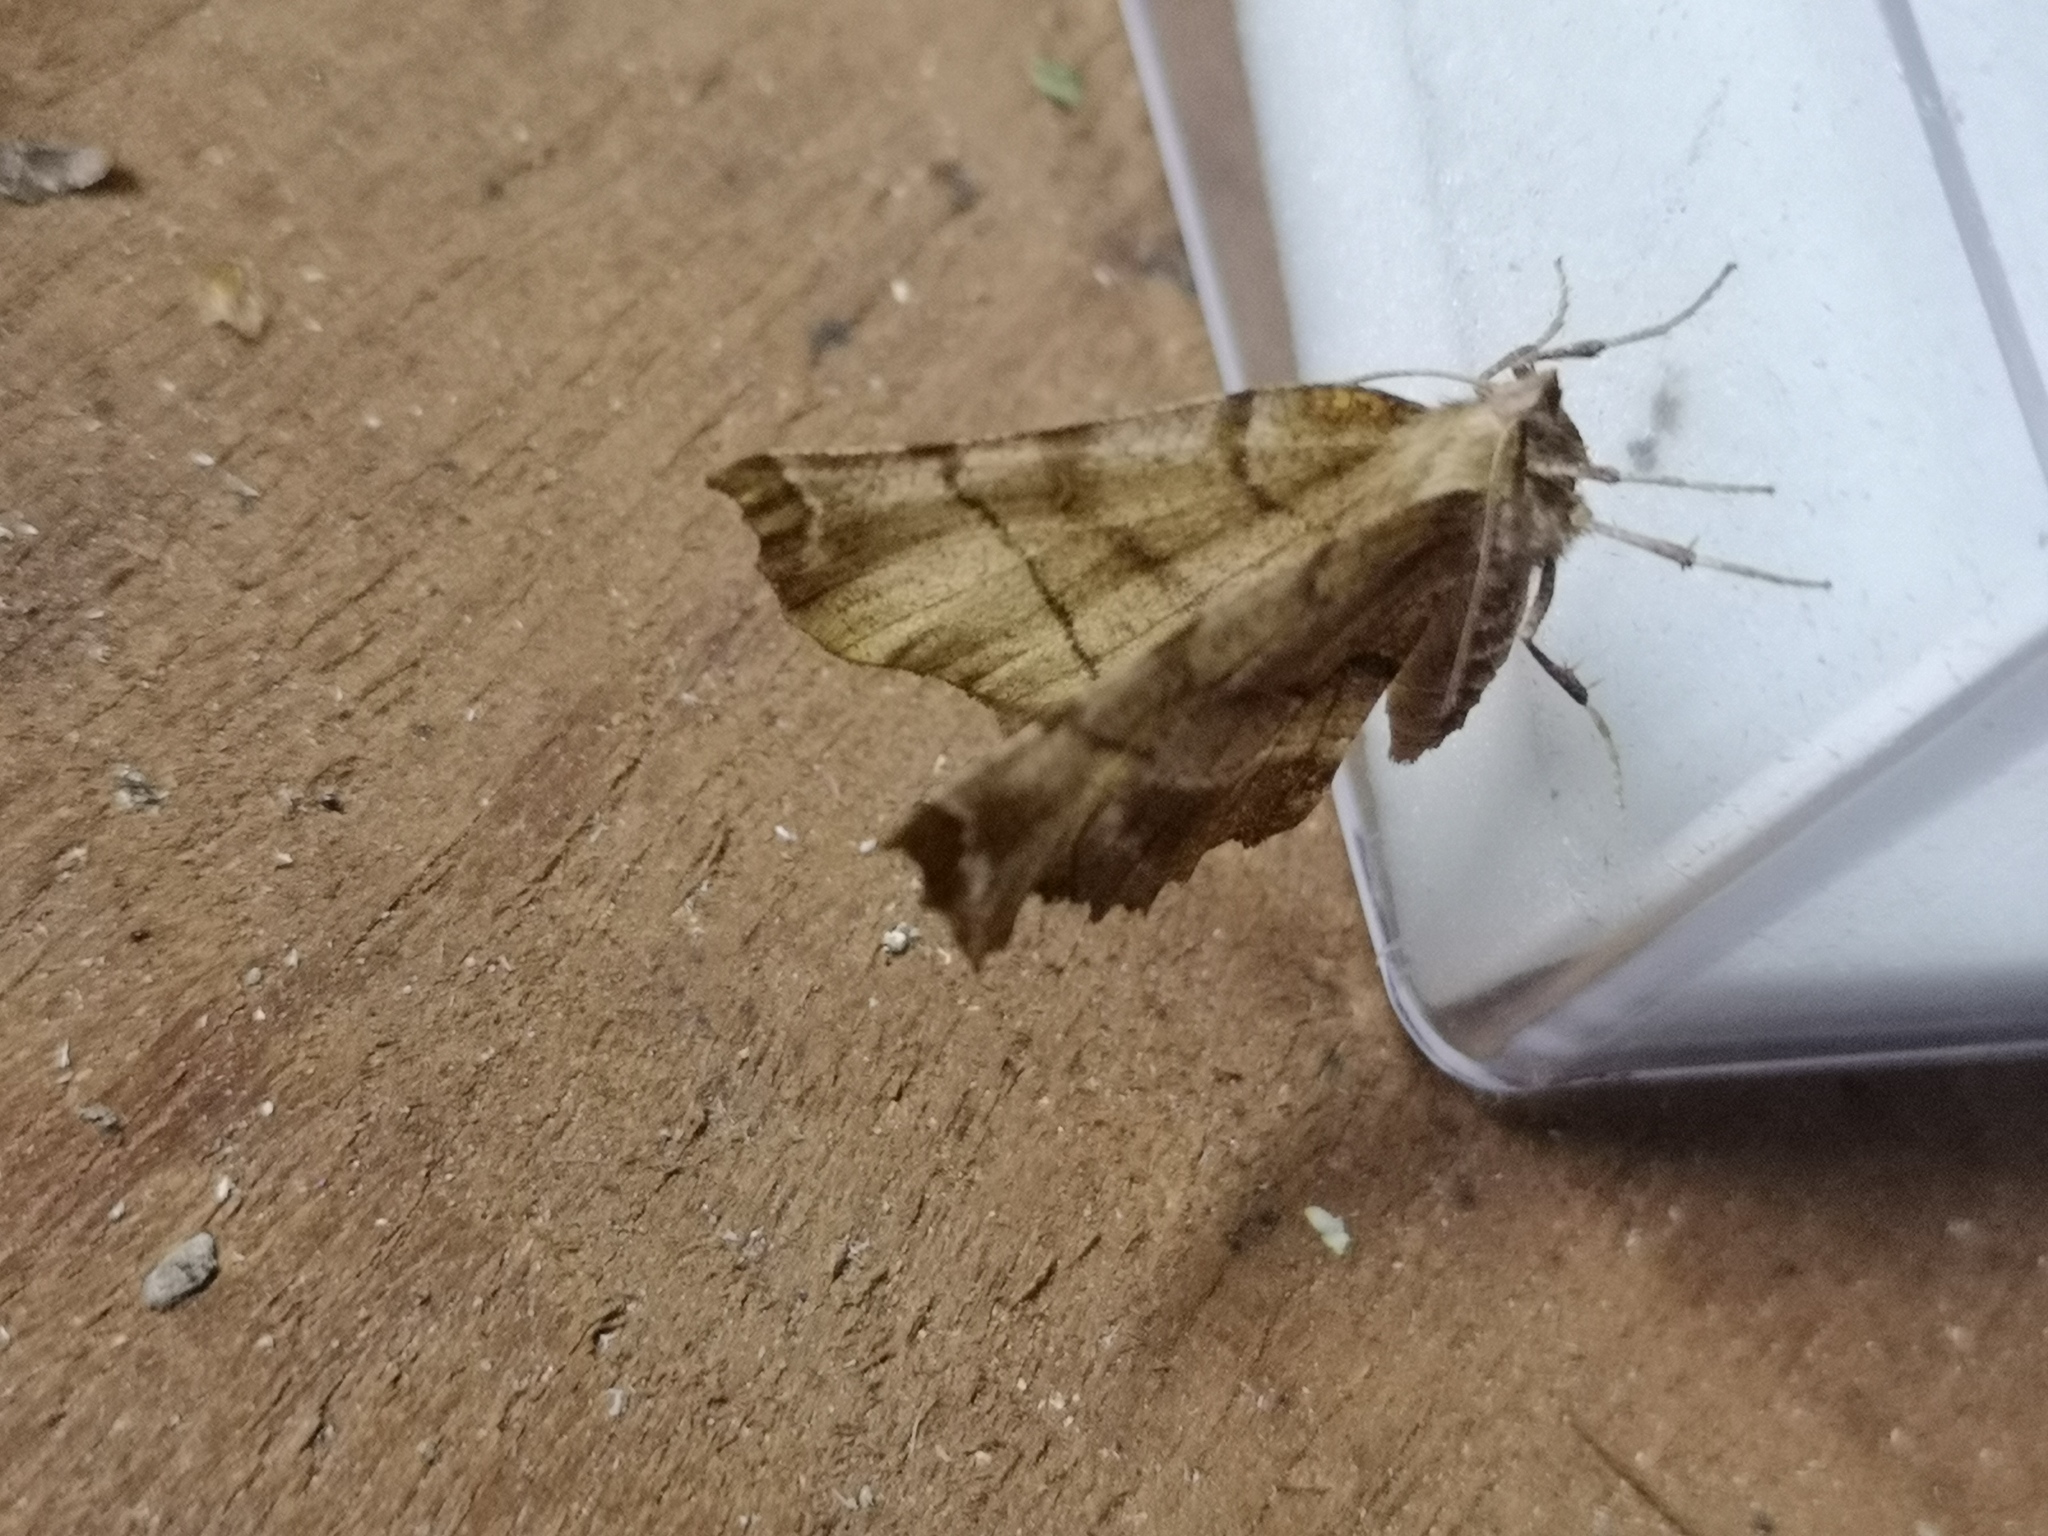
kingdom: Animalia
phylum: Arthropoda
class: Insecta
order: Lepidoptera
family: Geometridae
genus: Selenia
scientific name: Selenia dentaria
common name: Early thorn
